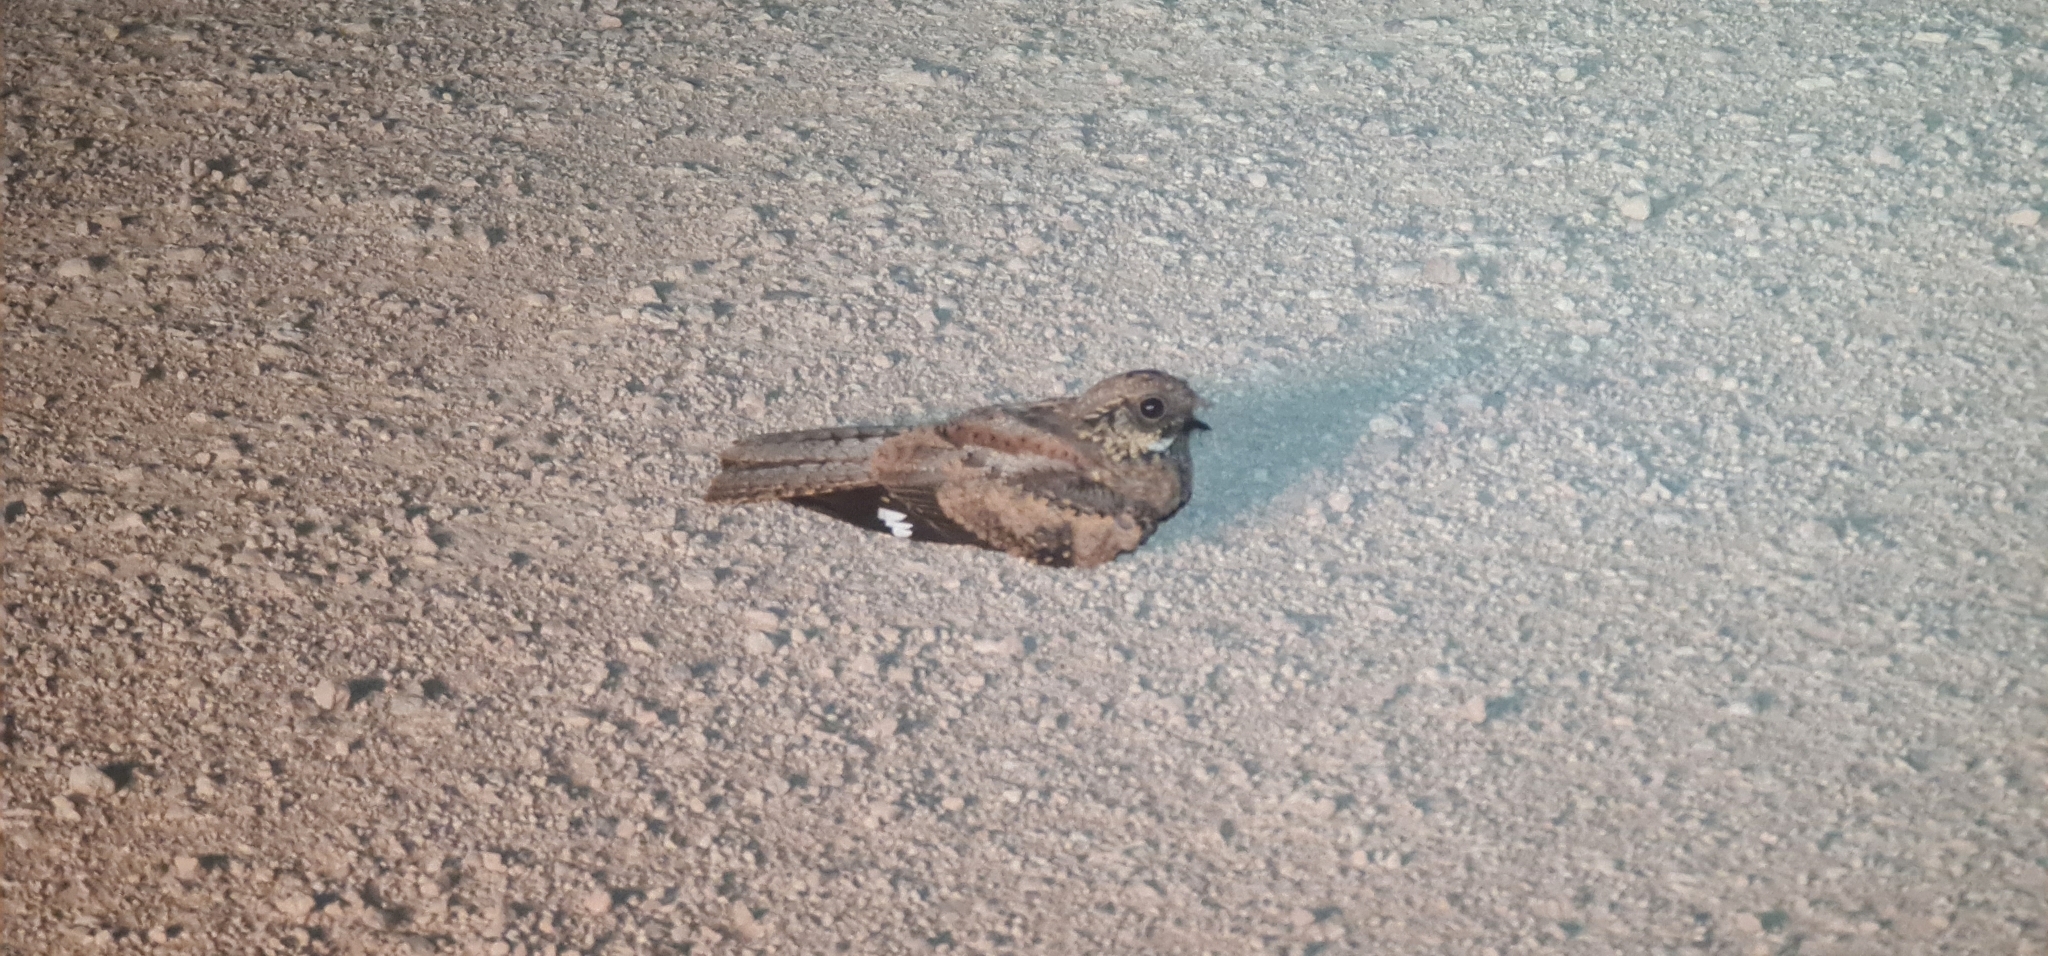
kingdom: Animalia
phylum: Chordata
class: Aves
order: Caprimulgiformes
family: Caprimulgidae
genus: Eurostopodus
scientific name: Eurostopodus argus
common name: Spotted nightjar
